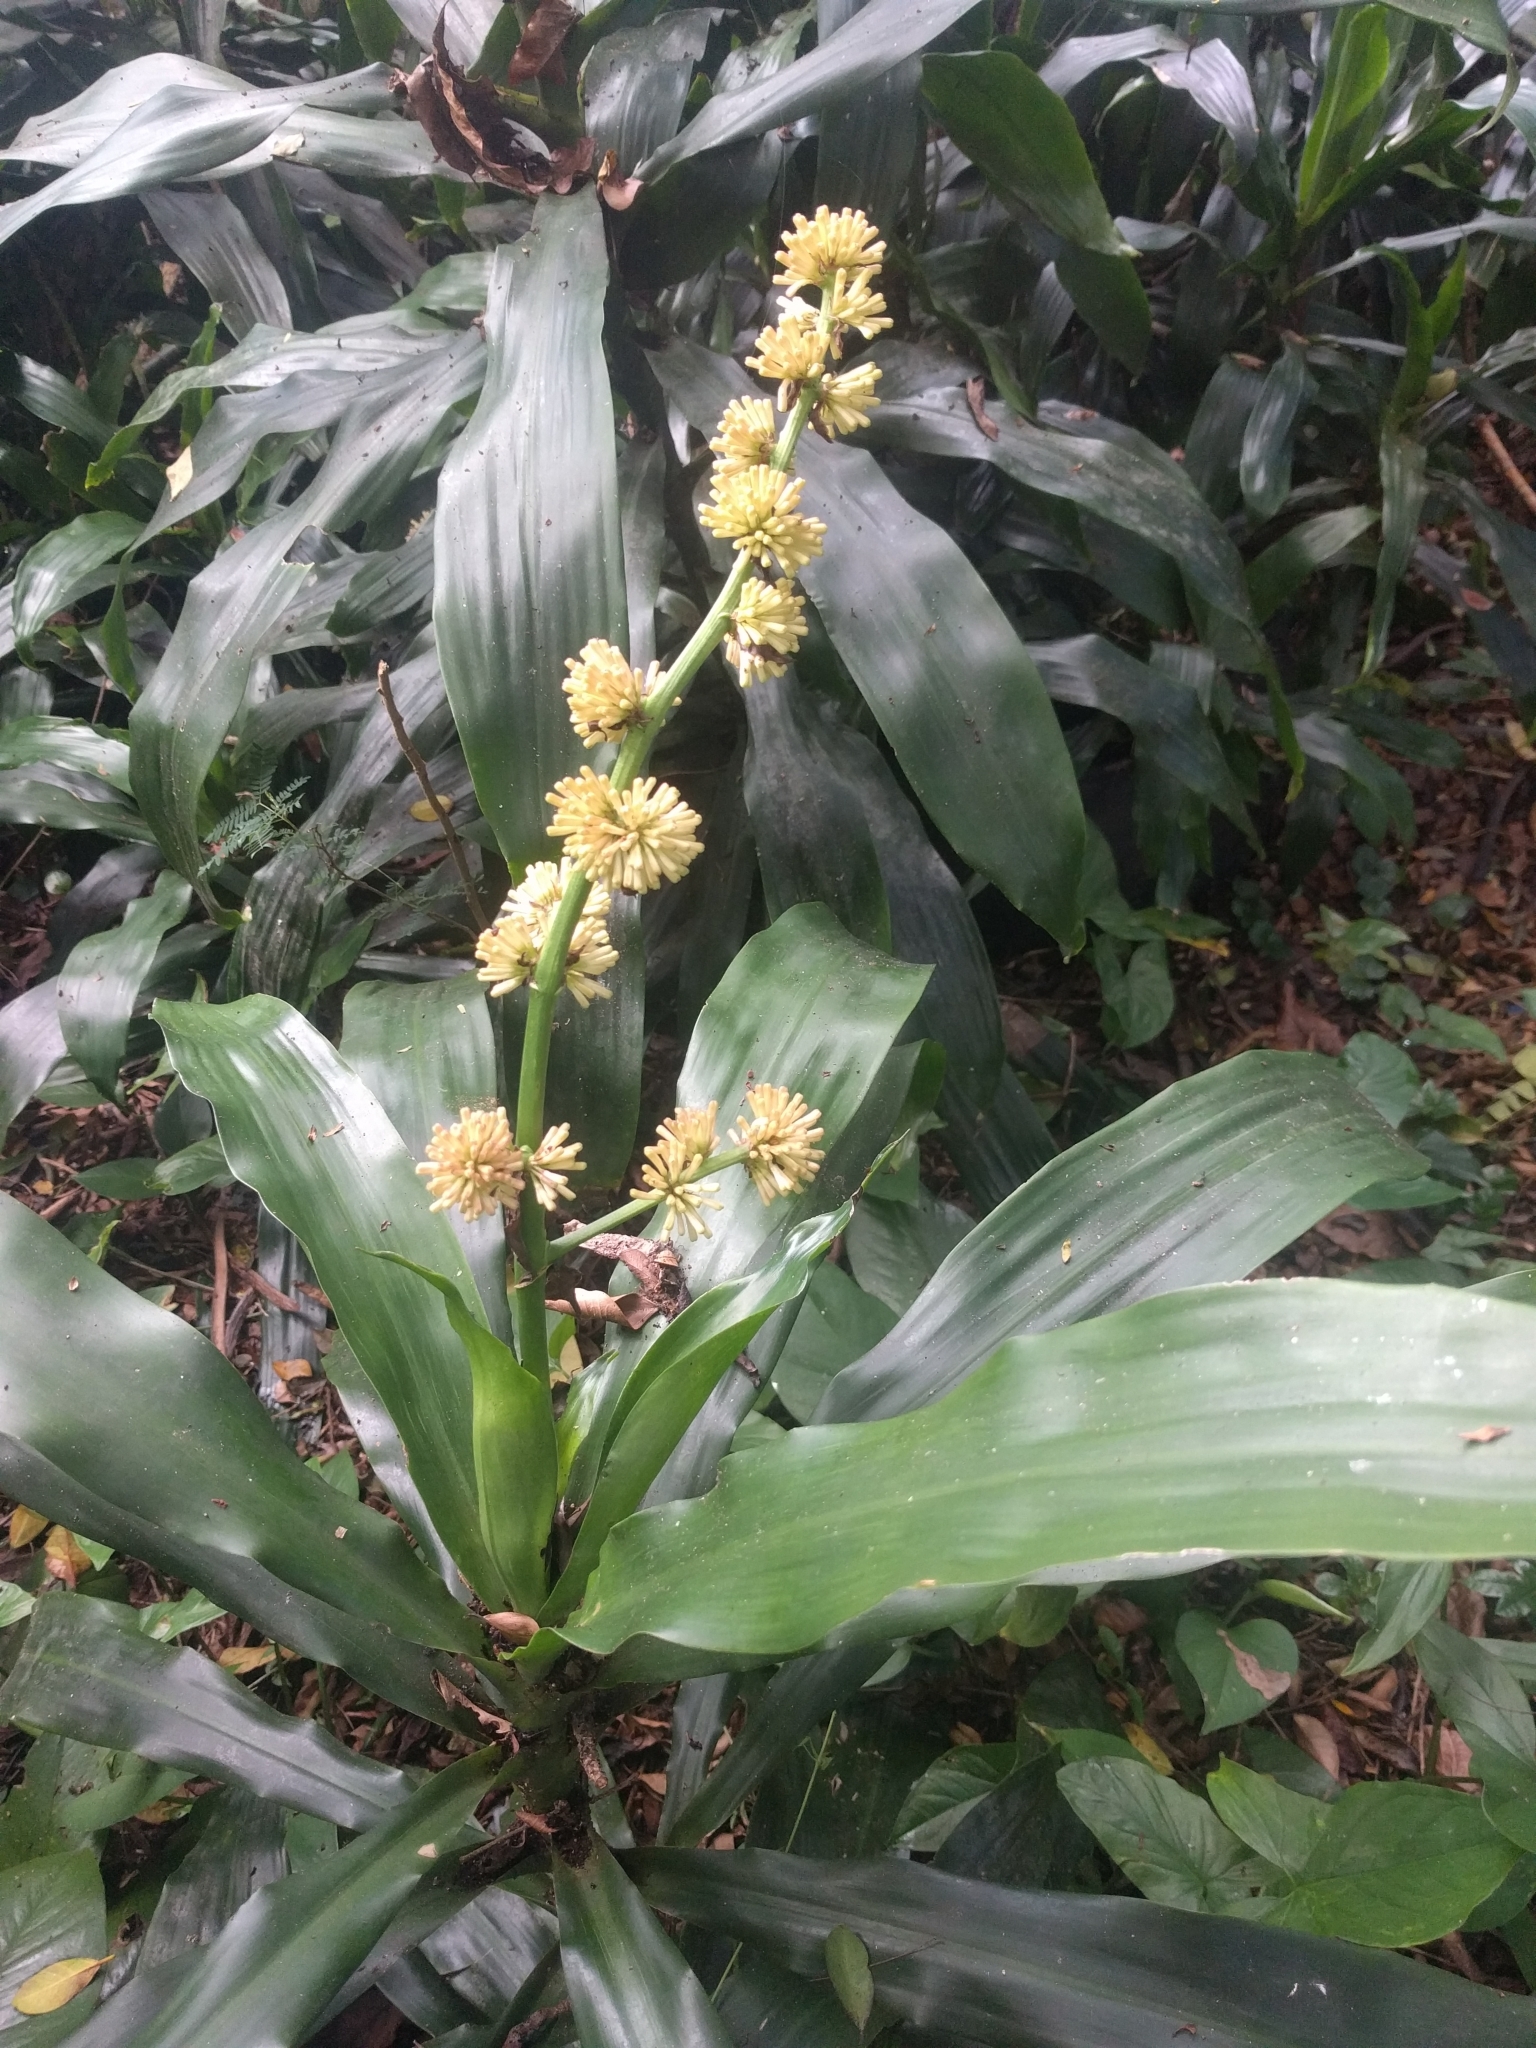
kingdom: Plantae
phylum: Tracheophyta
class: Liliopsida
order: Asparagales
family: Asparagaceae
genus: Dracaena
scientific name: Dracaena fragrans
